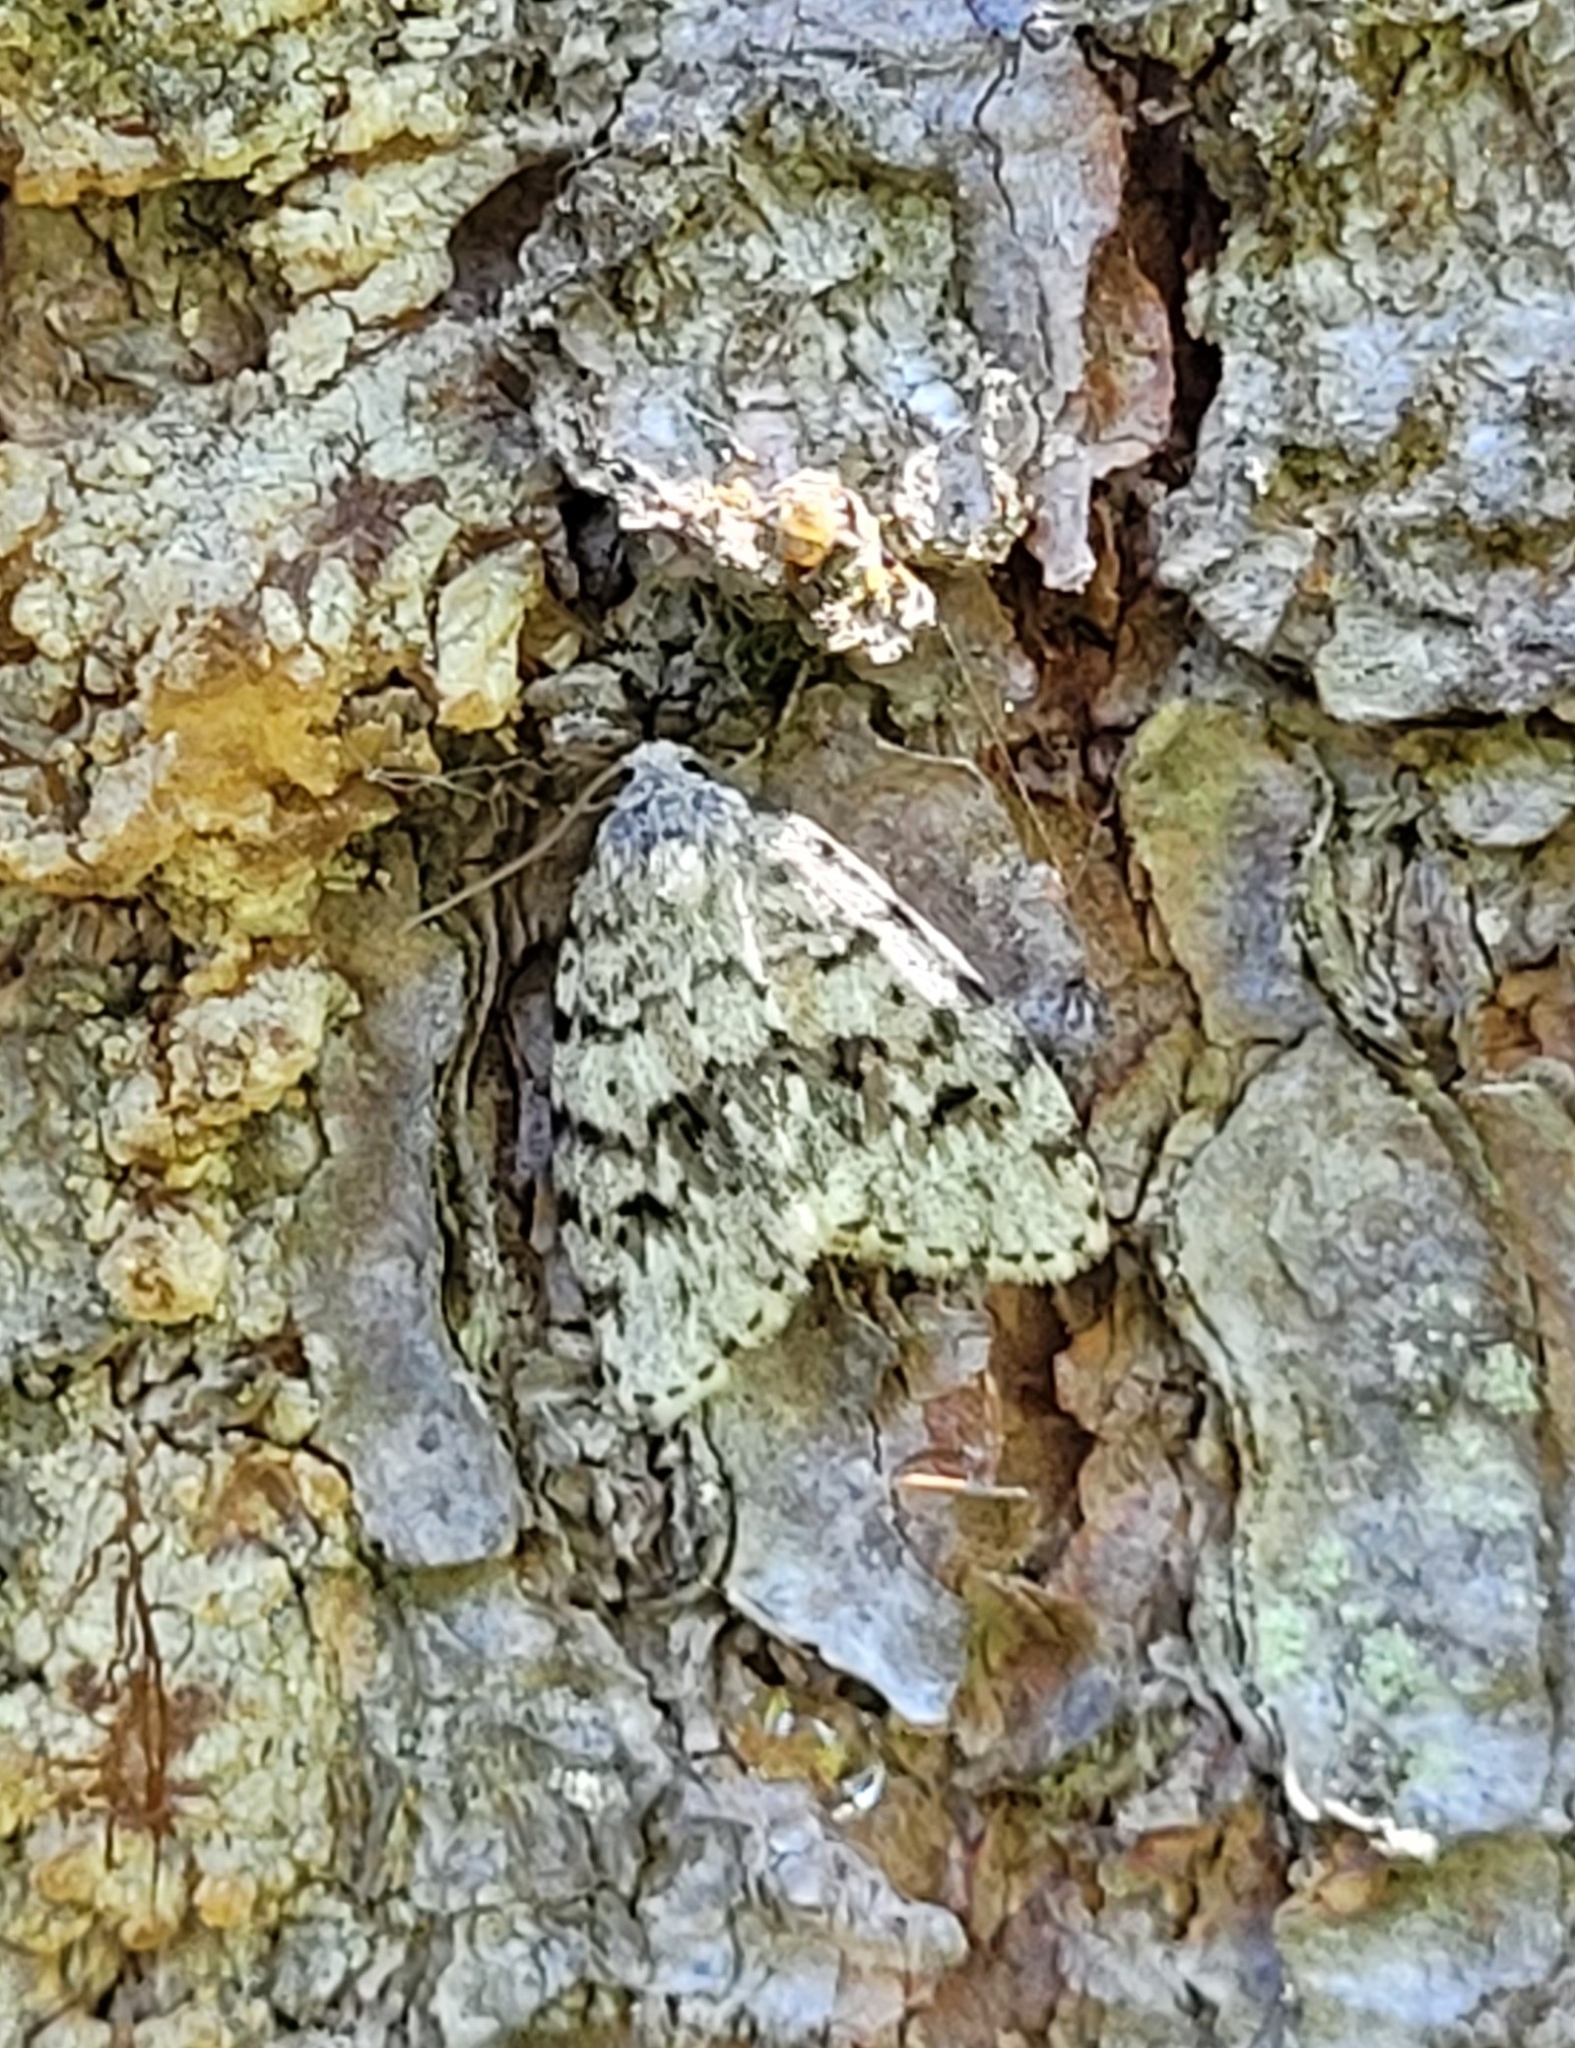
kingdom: Animalia
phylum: Arthropoda
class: Insecta
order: Lepidoptera
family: Erebidae
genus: Clemensia
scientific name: Clemensia umbrata
